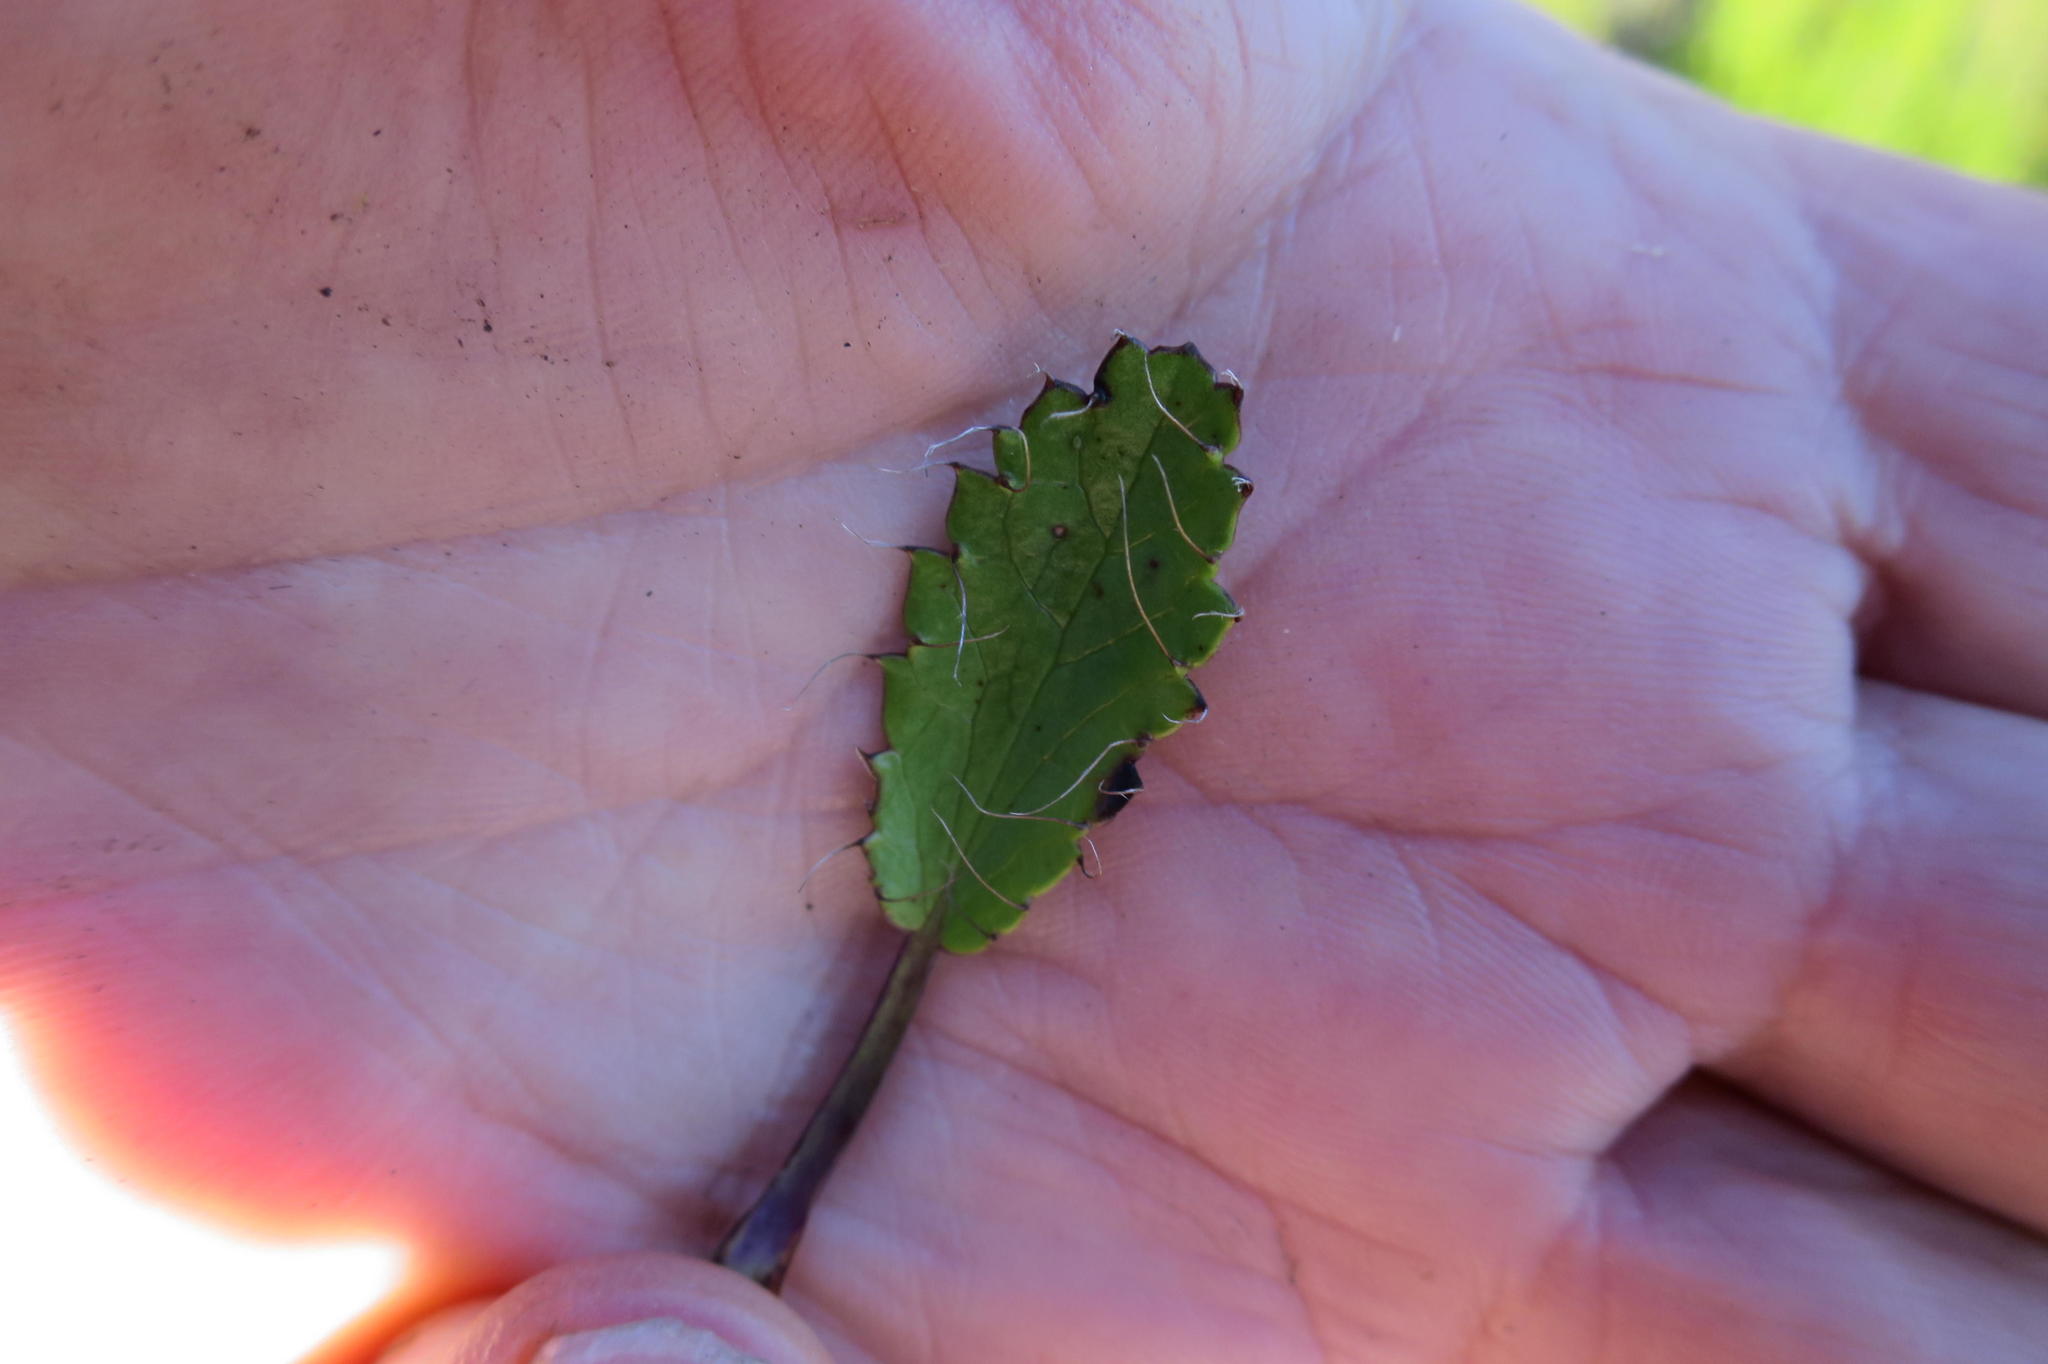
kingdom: Plantae
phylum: Tracheophyta
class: Magnoliopsida
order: Apiales
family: Apiaceae
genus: Alepidea
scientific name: Alepidea delicatula
